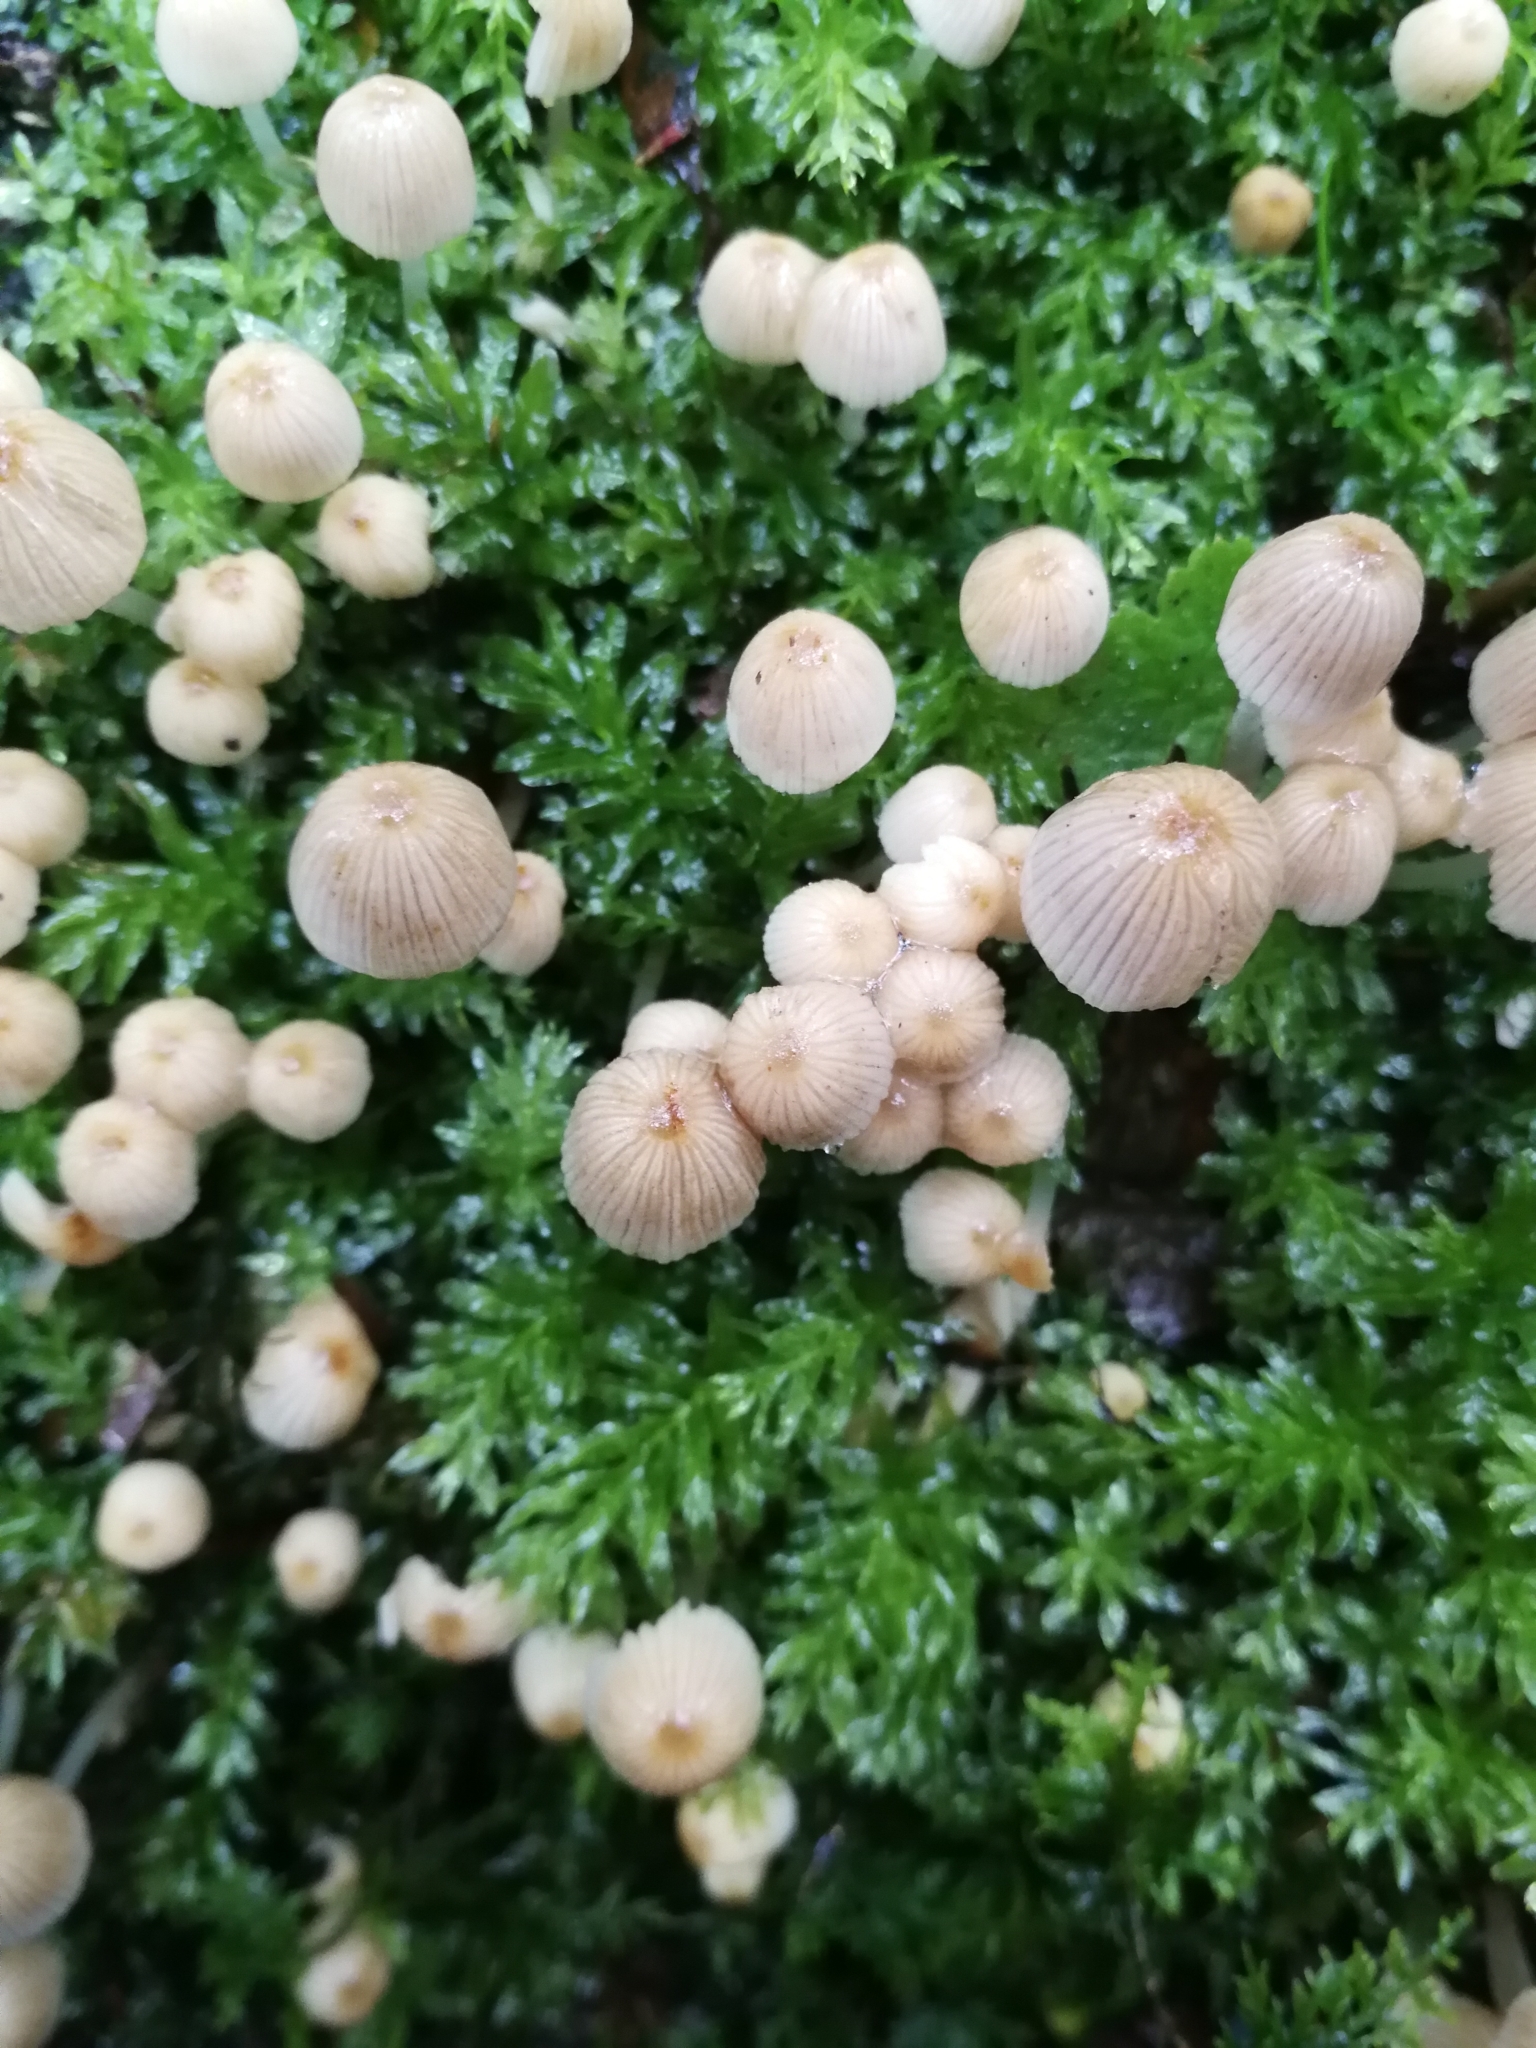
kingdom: Fungi
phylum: Basidiomycota
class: Agaricomycetes
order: Agaricales
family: Psathyrellaceae
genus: Coprinellus
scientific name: Coprinellus disseminatus
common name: Fairies' bonnets
